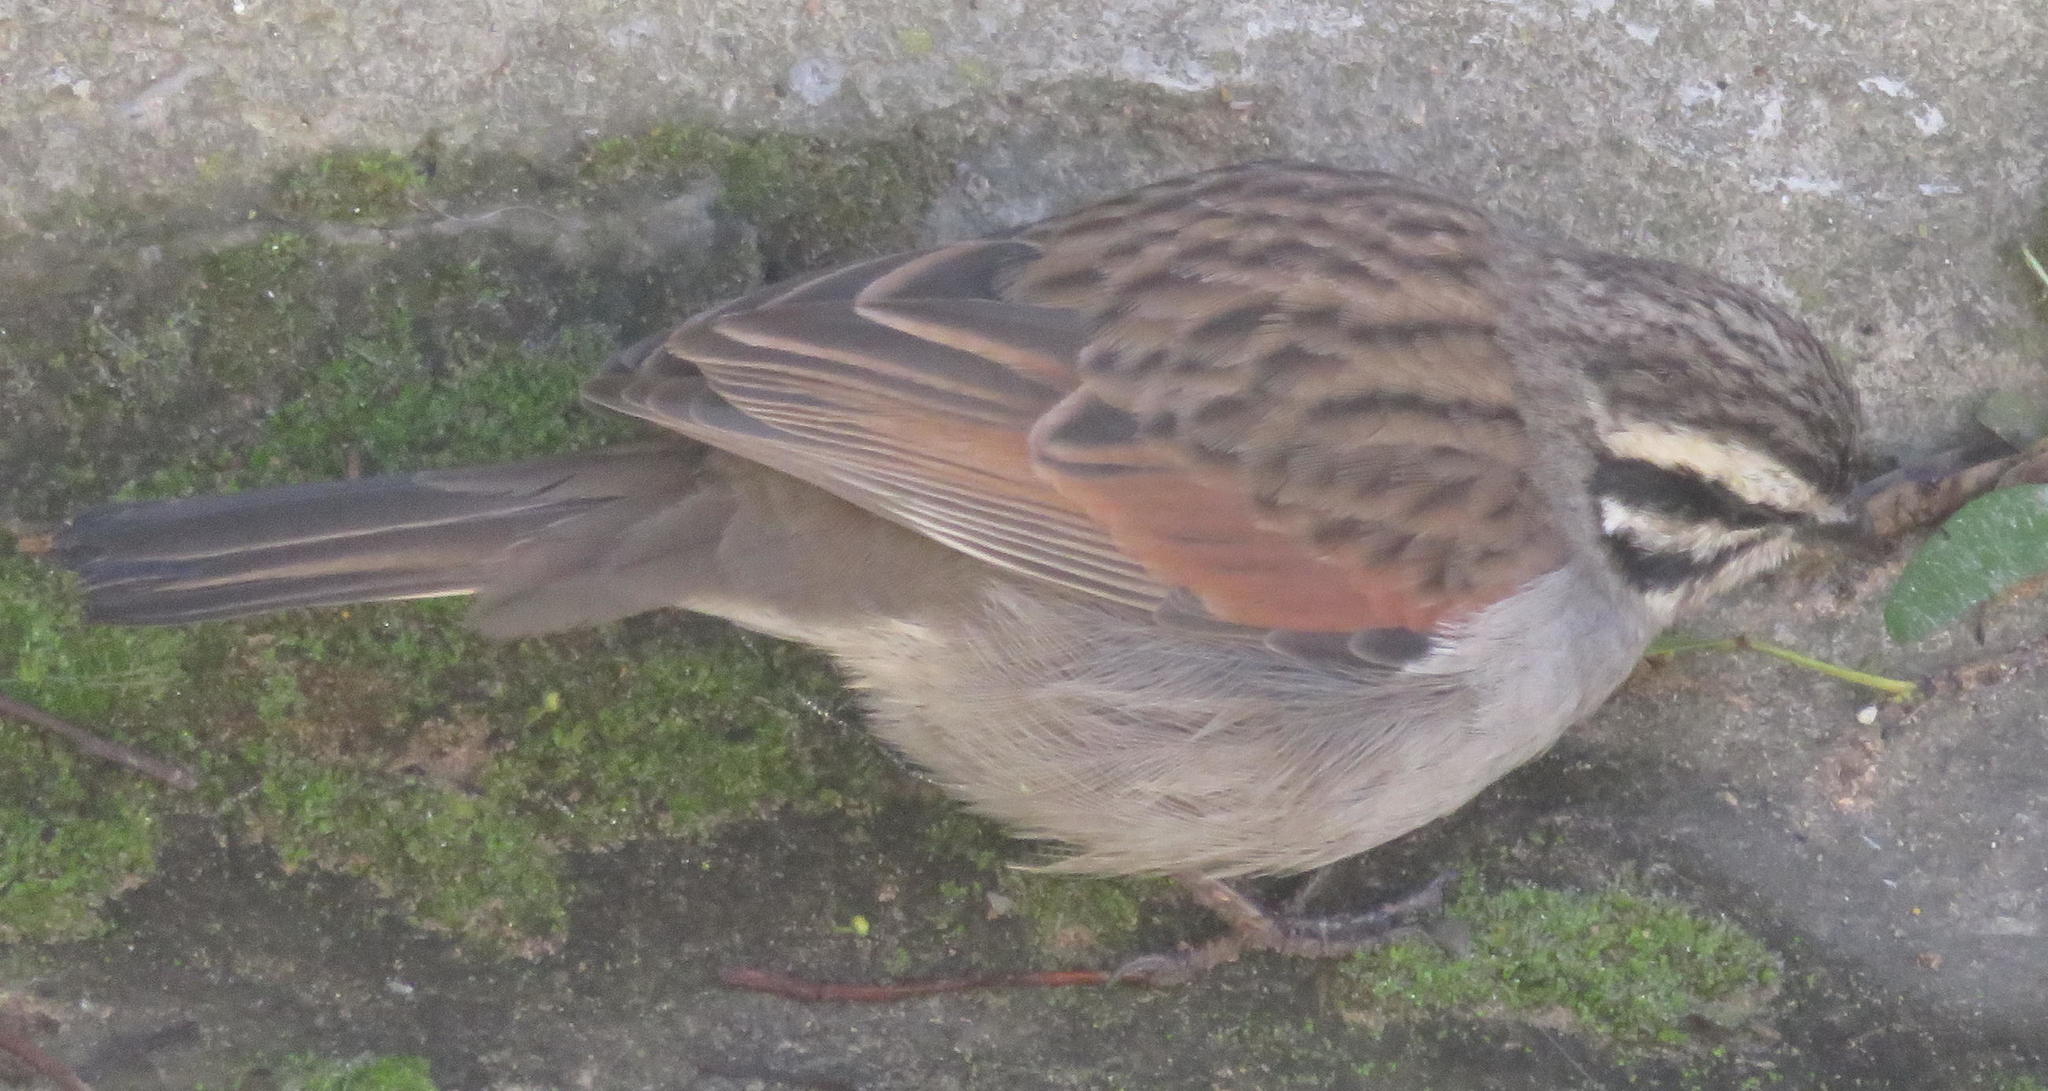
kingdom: Animalia
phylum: Chordata
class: Aves
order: Passeriformes
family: Emberizidae
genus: Emberiza
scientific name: Emberiza capensis
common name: Cape bunting
